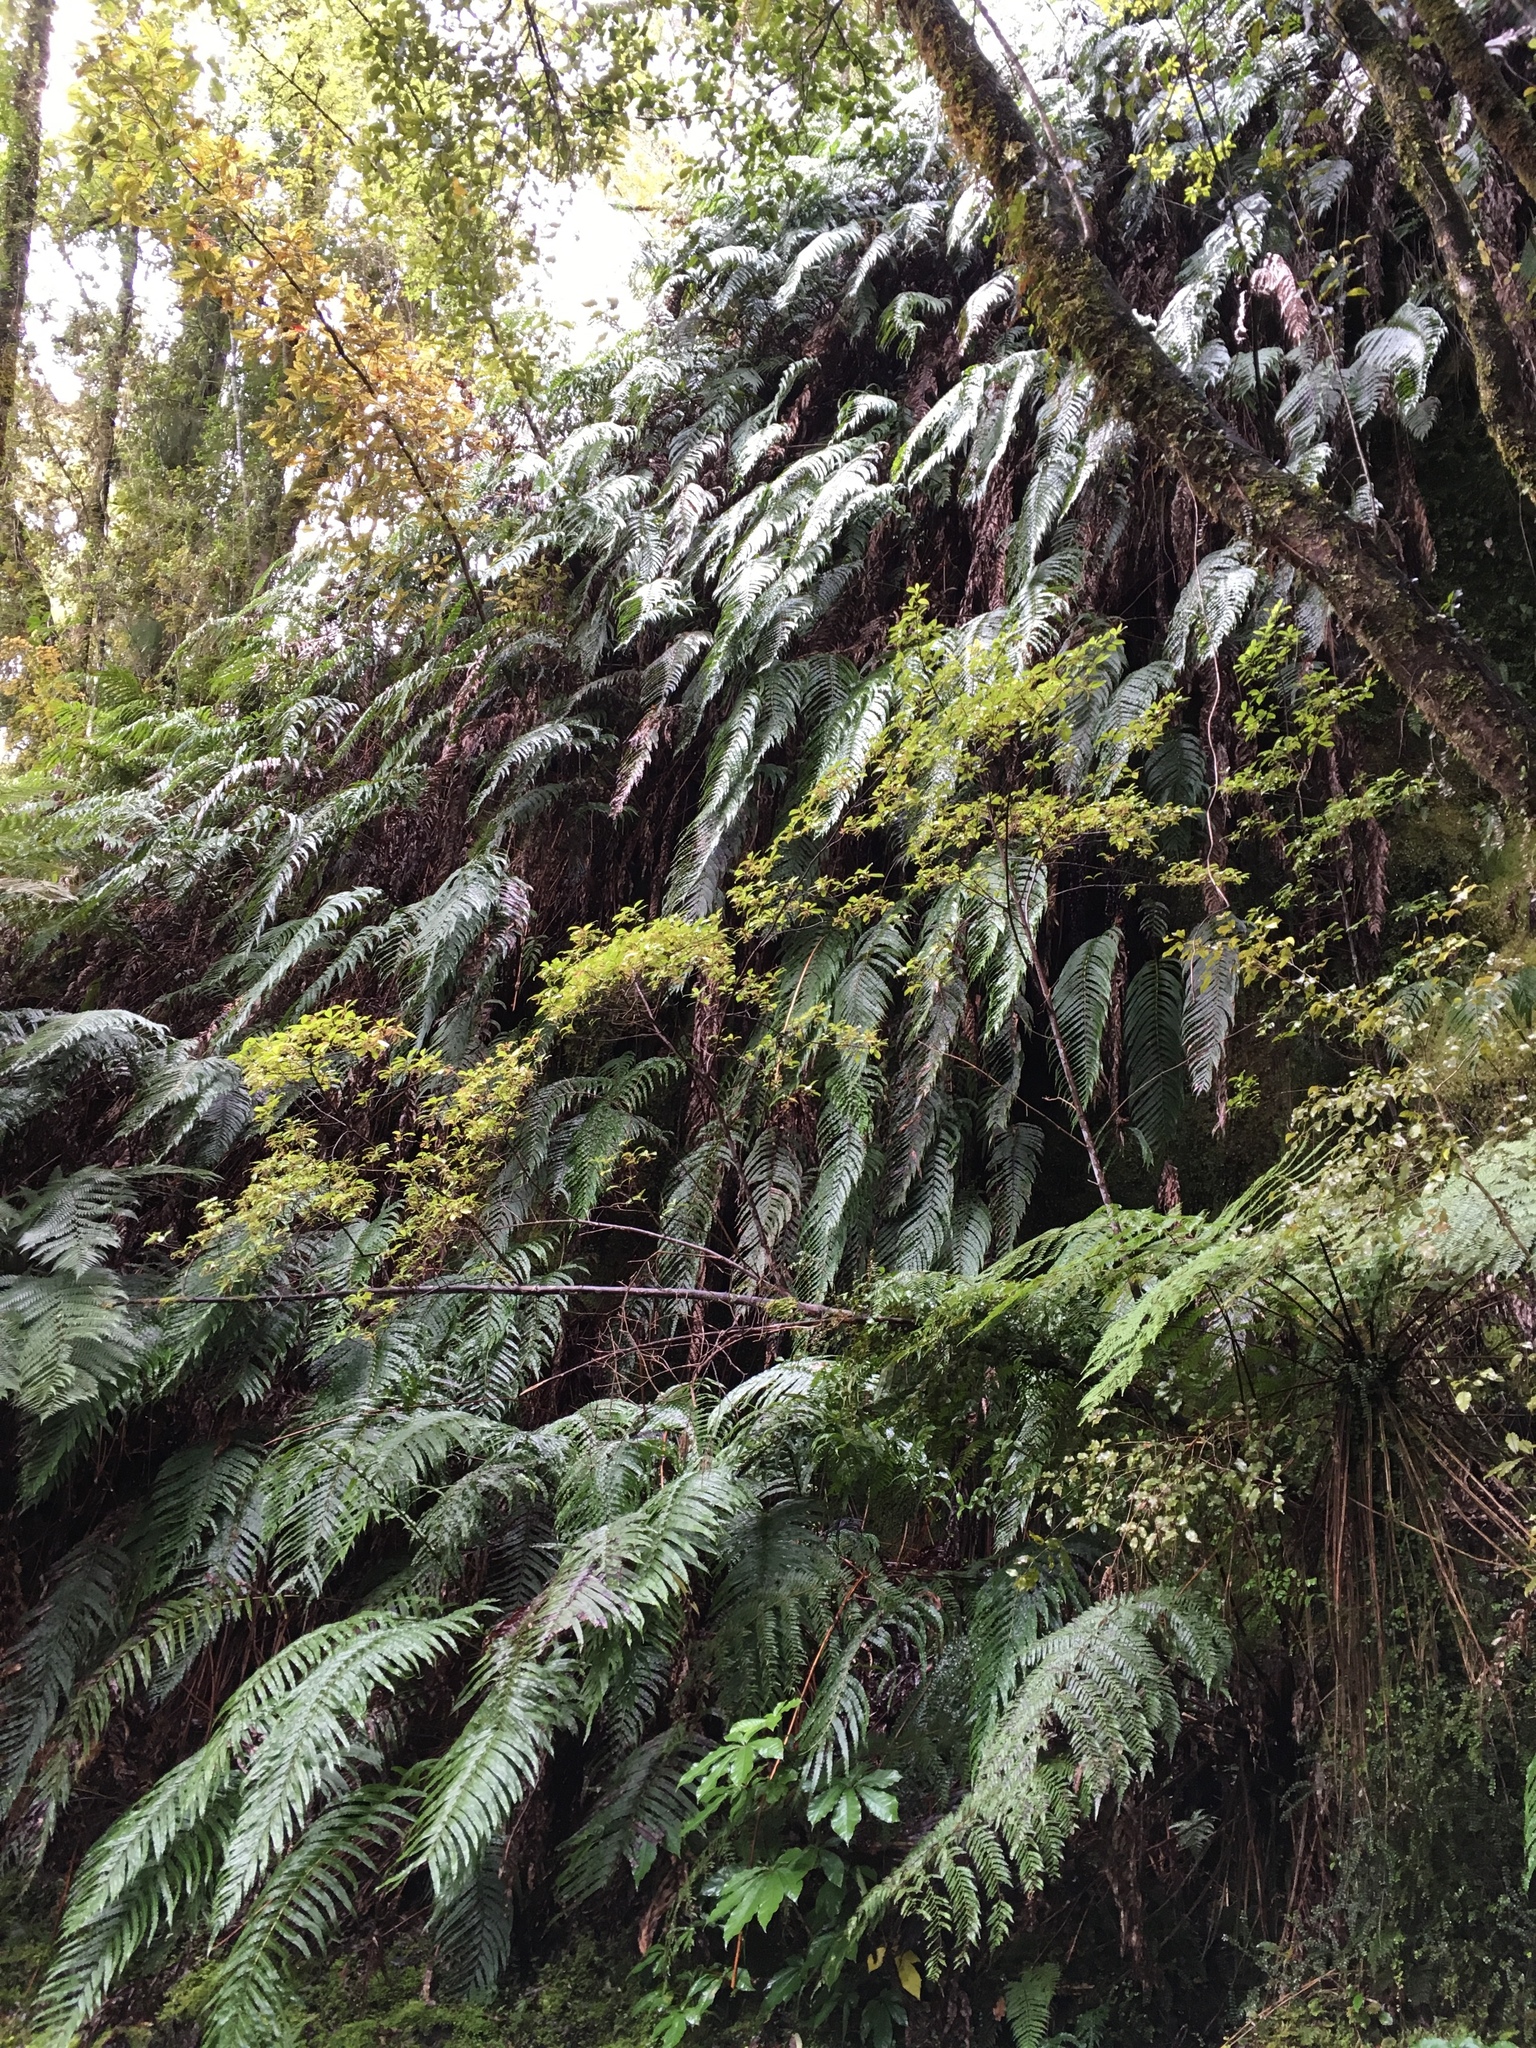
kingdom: Plantae
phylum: Tracheophyta
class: Polypodiopsida
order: Polypodiales
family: Blechnaceae
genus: Parablechnum
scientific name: Parablechnum novae-zelandiae
